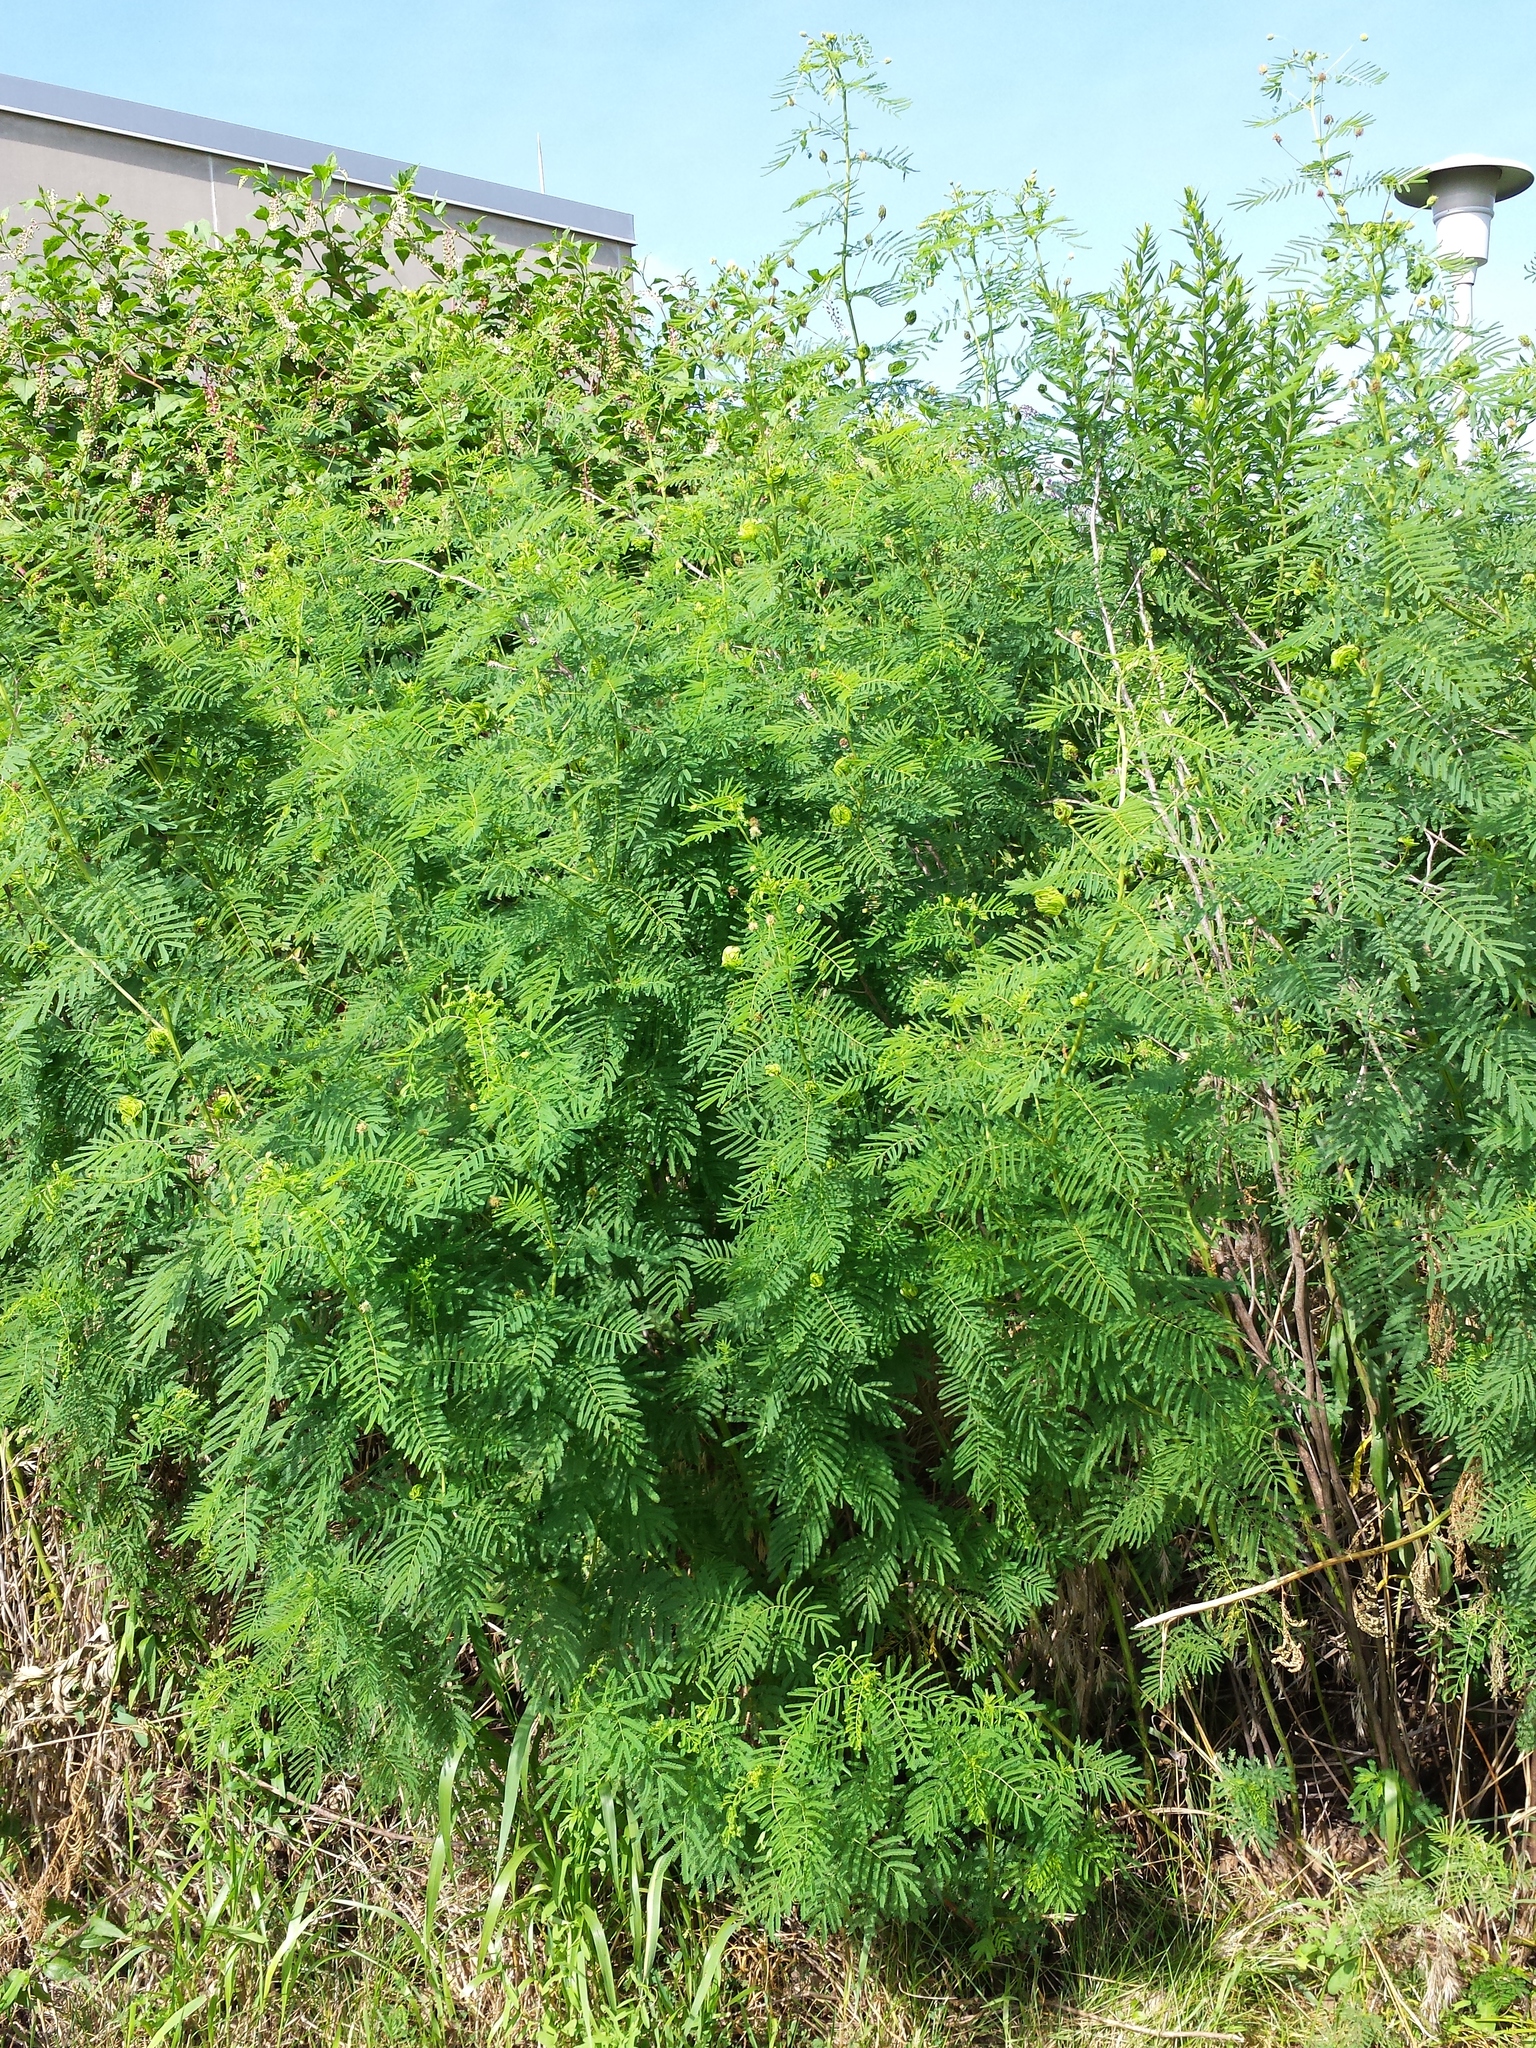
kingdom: Plantae
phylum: Tracheophyta
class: Magnoliopsida
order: Fabales
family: Fabaceae
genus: Desmanthus
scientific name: Desmanthus illinoensis
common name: Illinois bundle-flower
